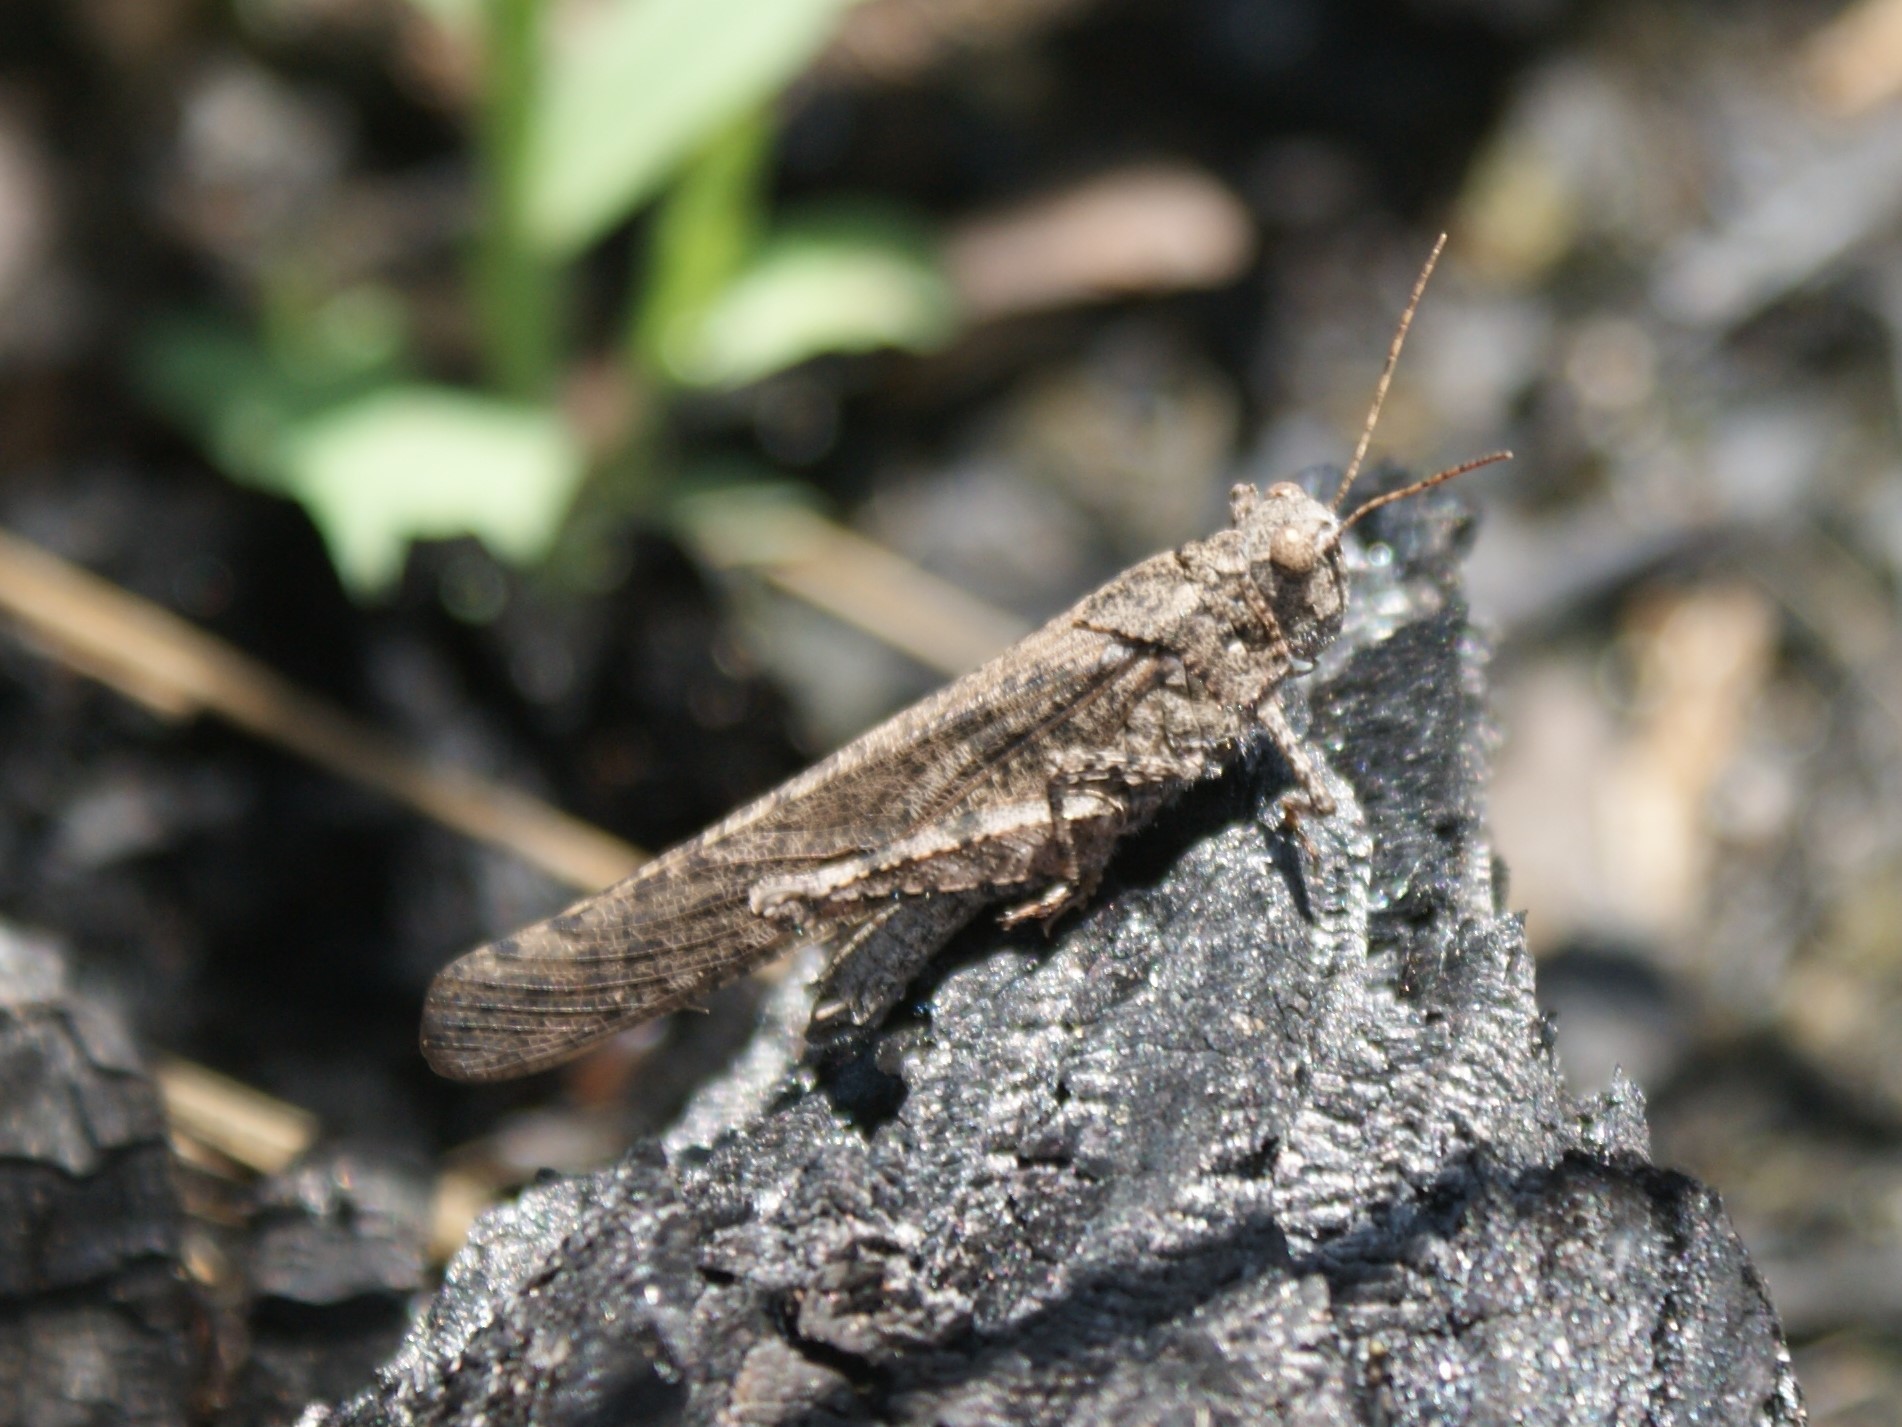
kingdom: Animalia
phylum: Arthropoda
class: Insecta
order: Orthoptera
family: Acrididae
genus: Dissosteira
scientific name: Dissosteira carolina
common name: Carolina grasshopper
